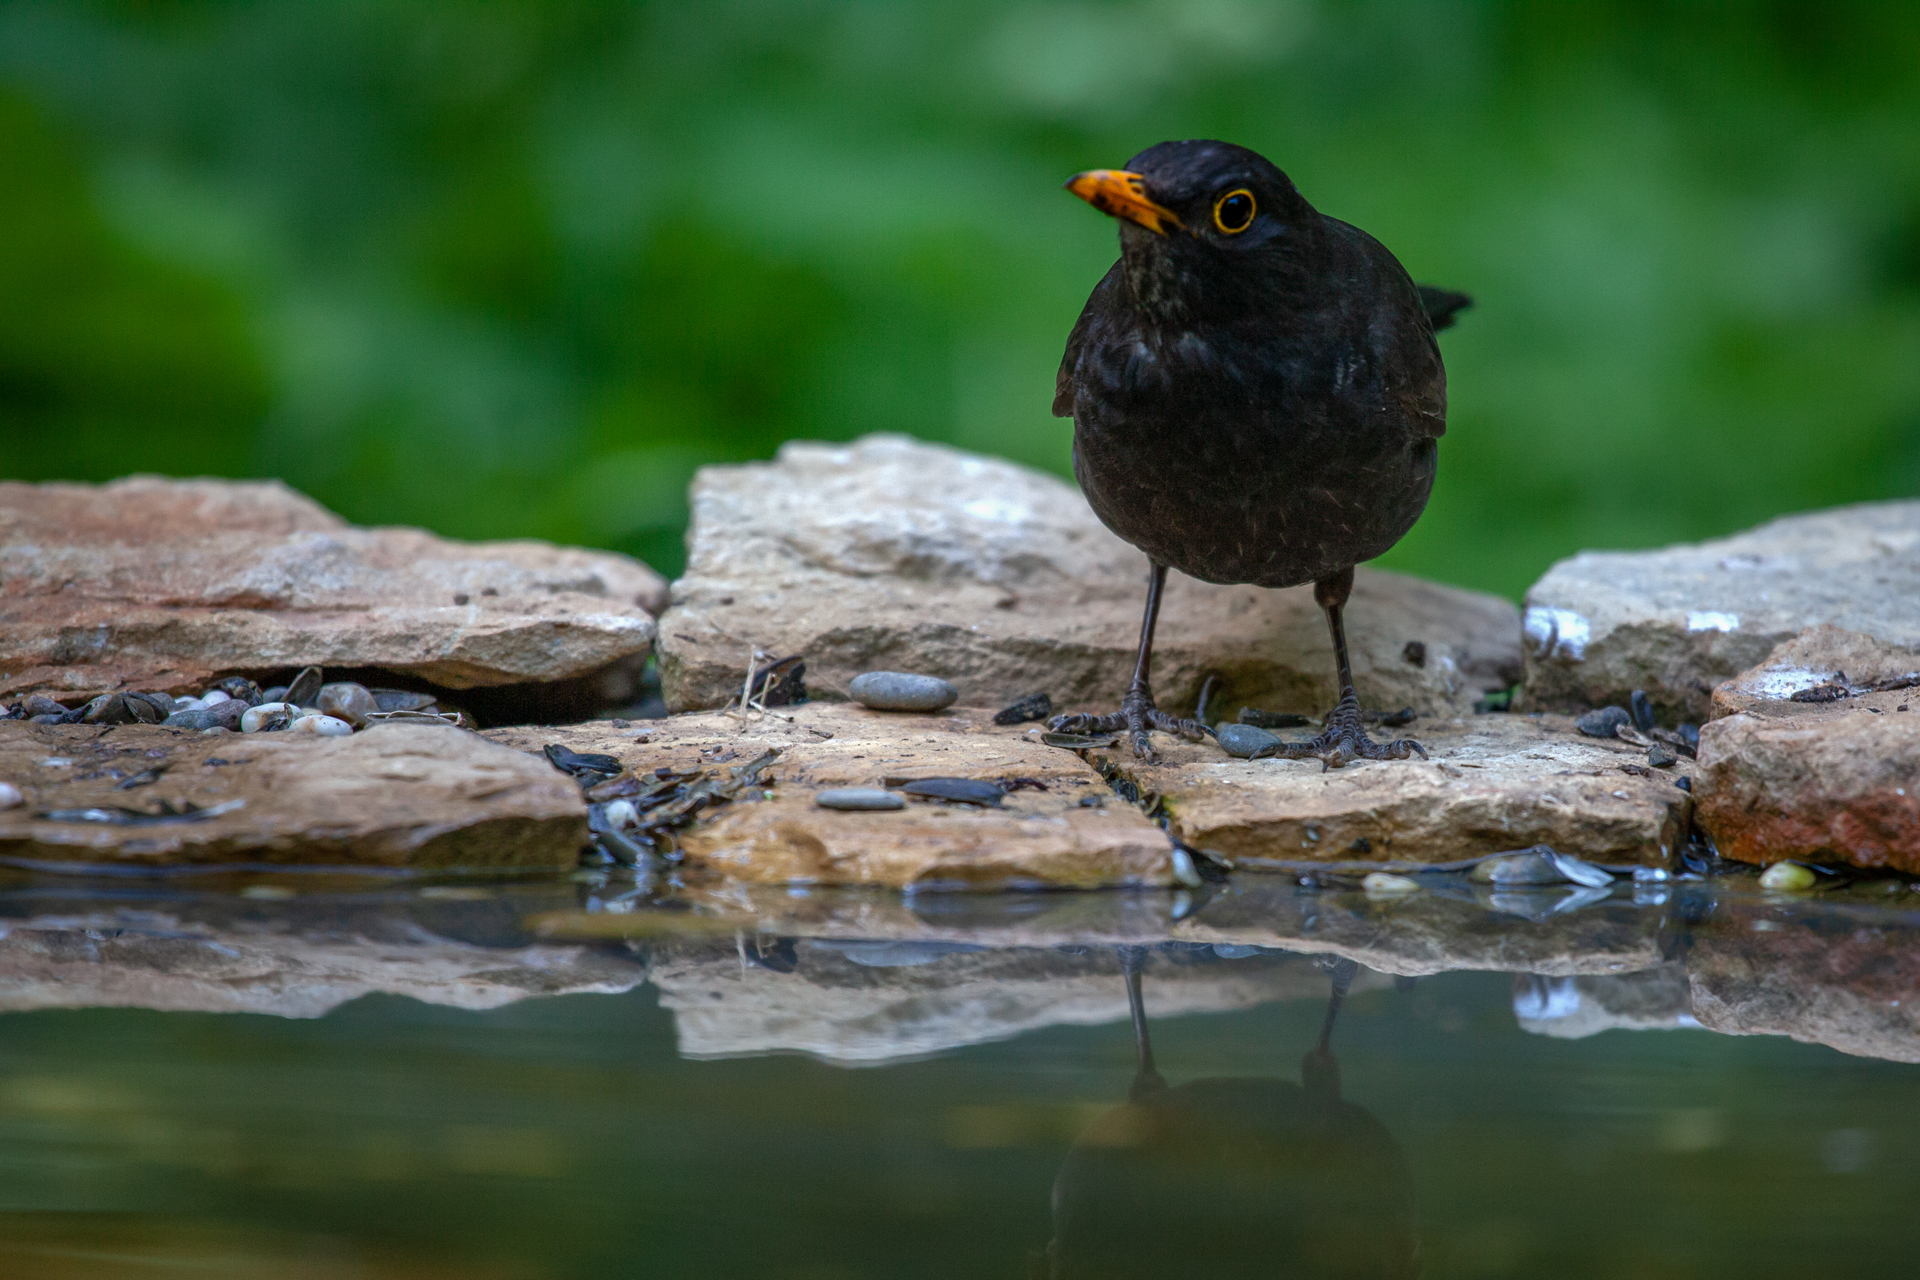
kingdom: Animalia
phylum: Chordata
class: Aves
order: Passeriformes
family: Turdidae
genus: Turdus
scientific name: Turdus merula
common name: Common blackbird
